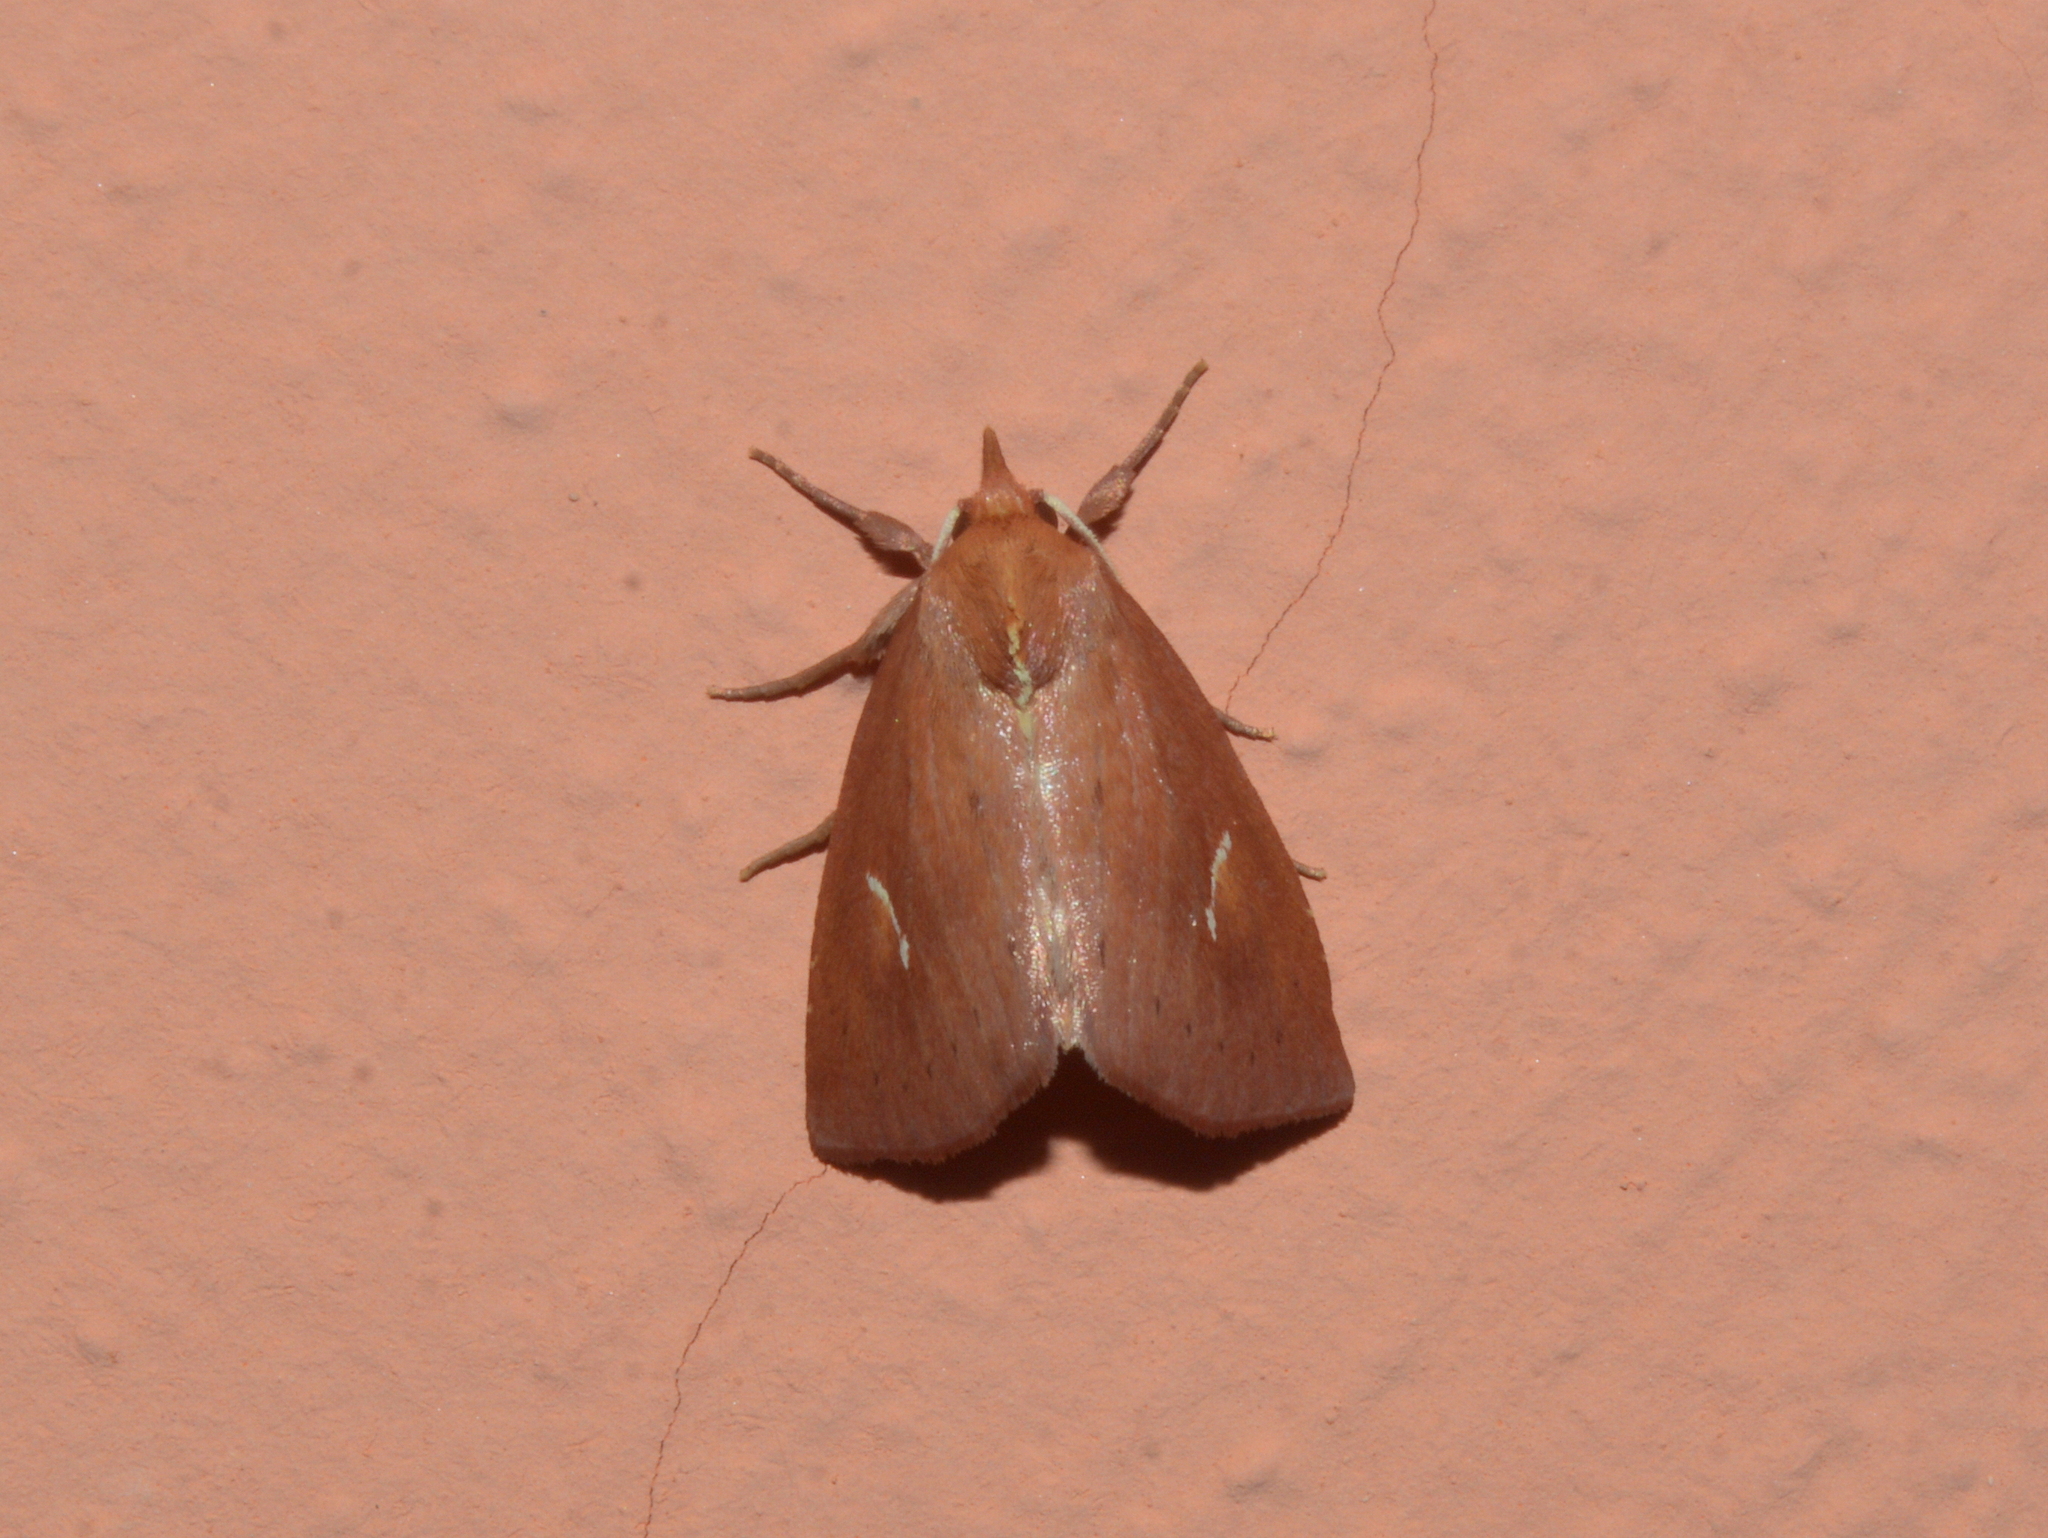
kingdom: Animalia
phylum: Arthropoda
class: Insecta
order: Lepidoptera
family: Noctuidae
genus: Macapta
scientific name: Macapta obliqua
